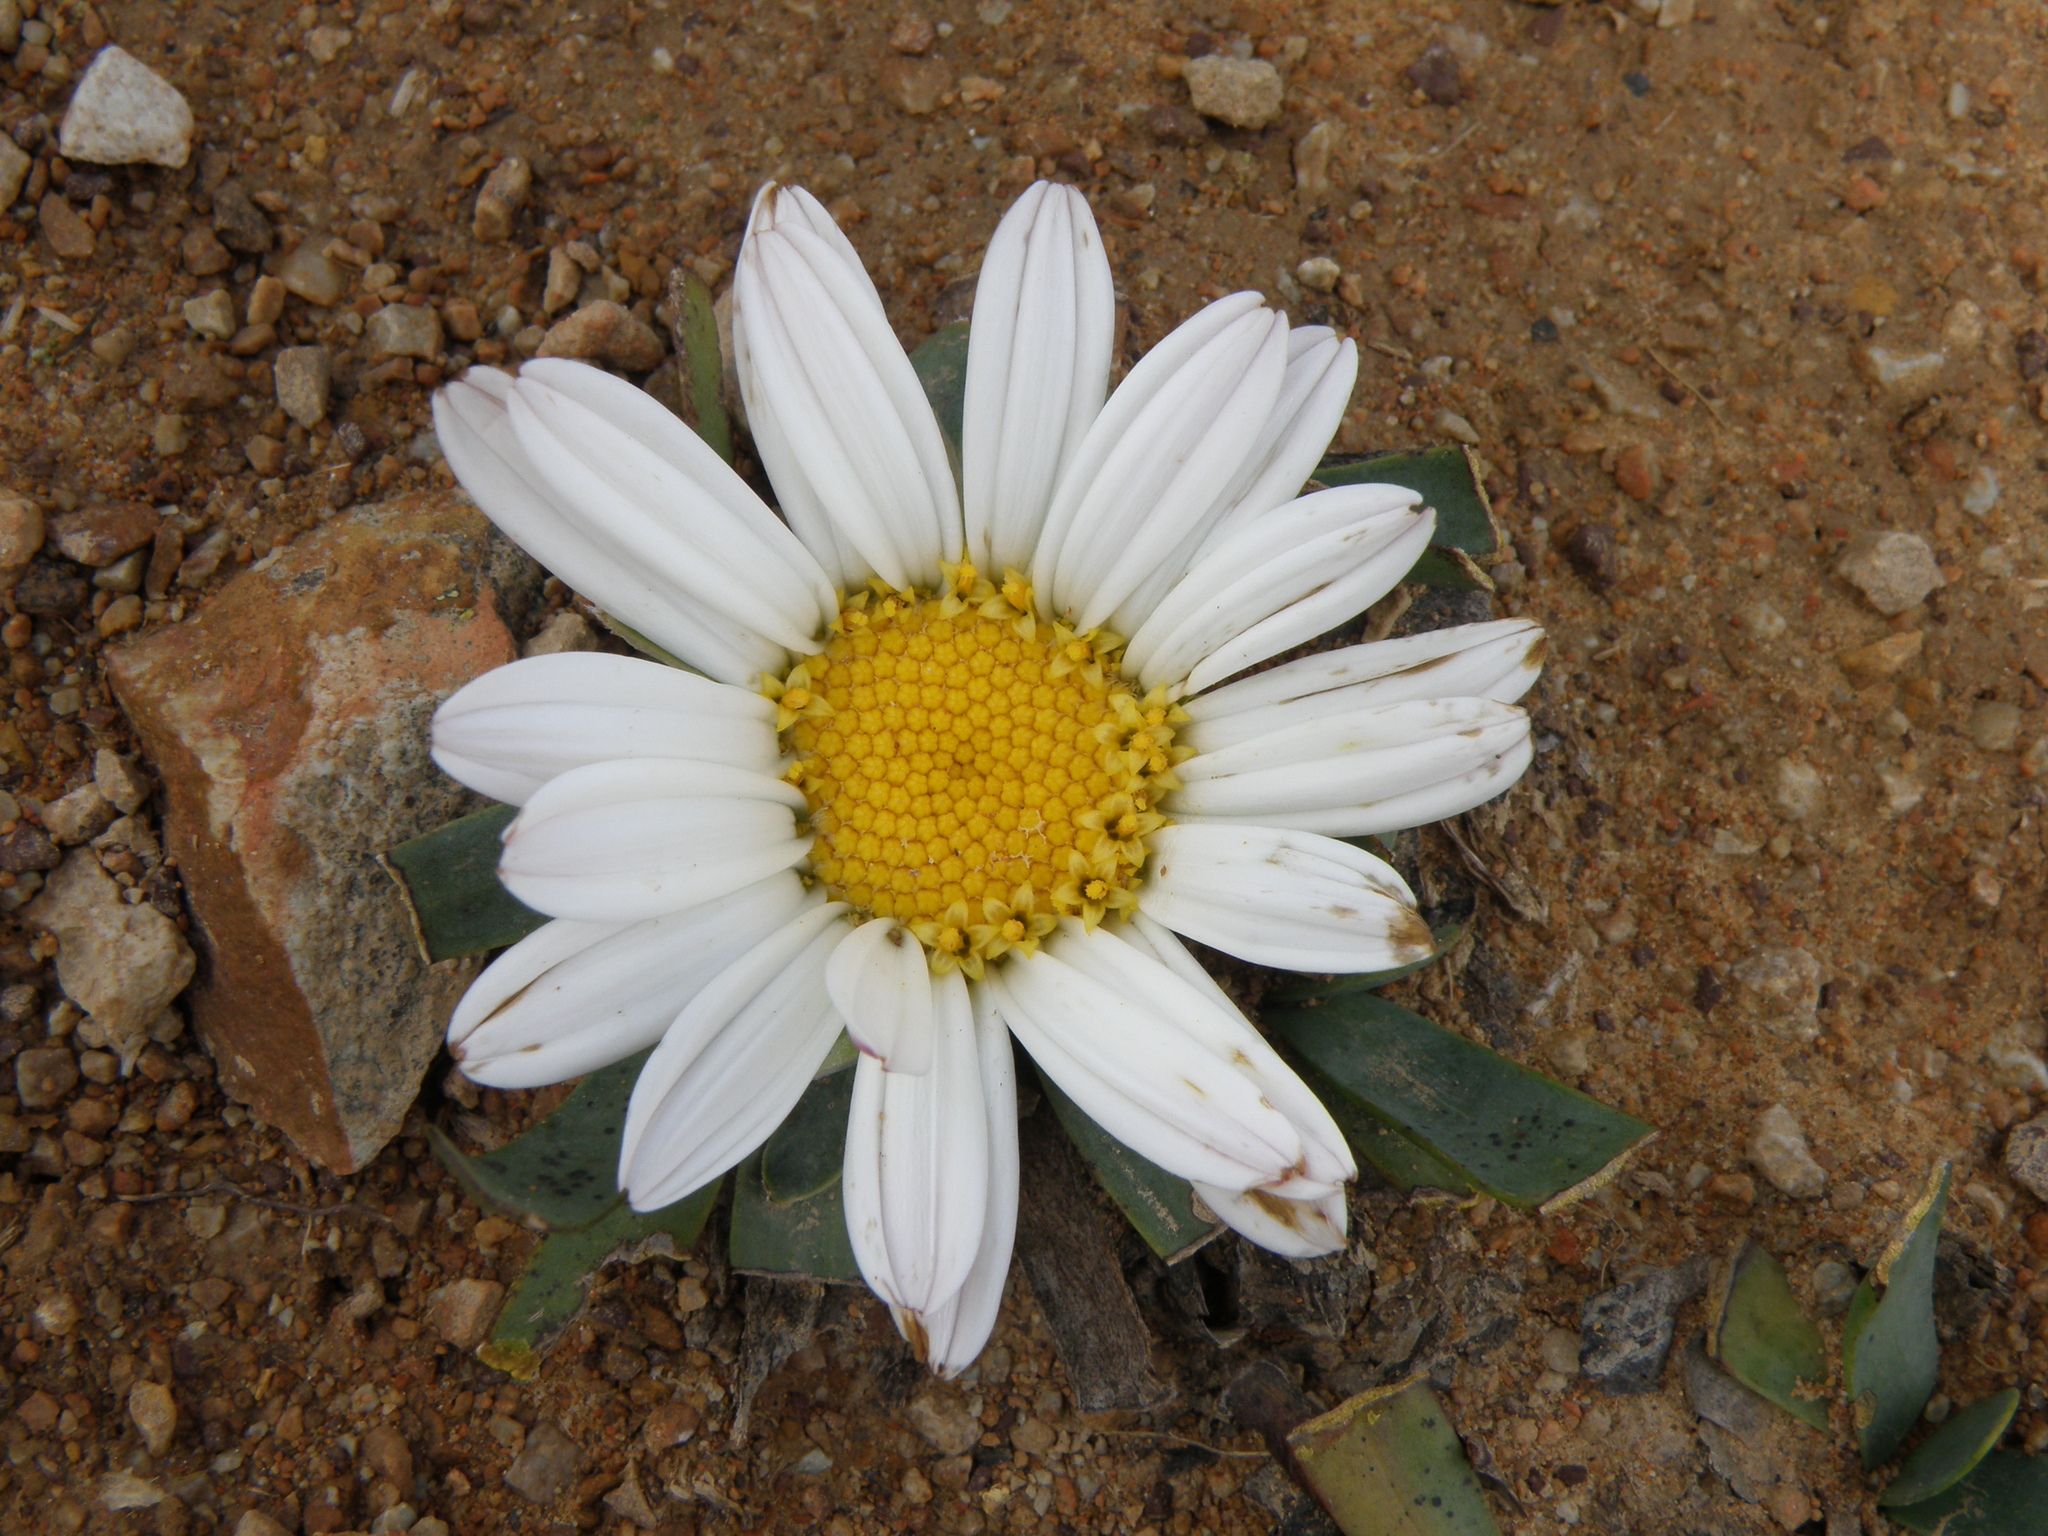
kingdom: Plantae
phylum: Tracheophyta
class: Magnoliopsida
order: Asterales
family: Asteraceae
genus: Rockhausenia
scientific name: Rockhausenia nubigena
